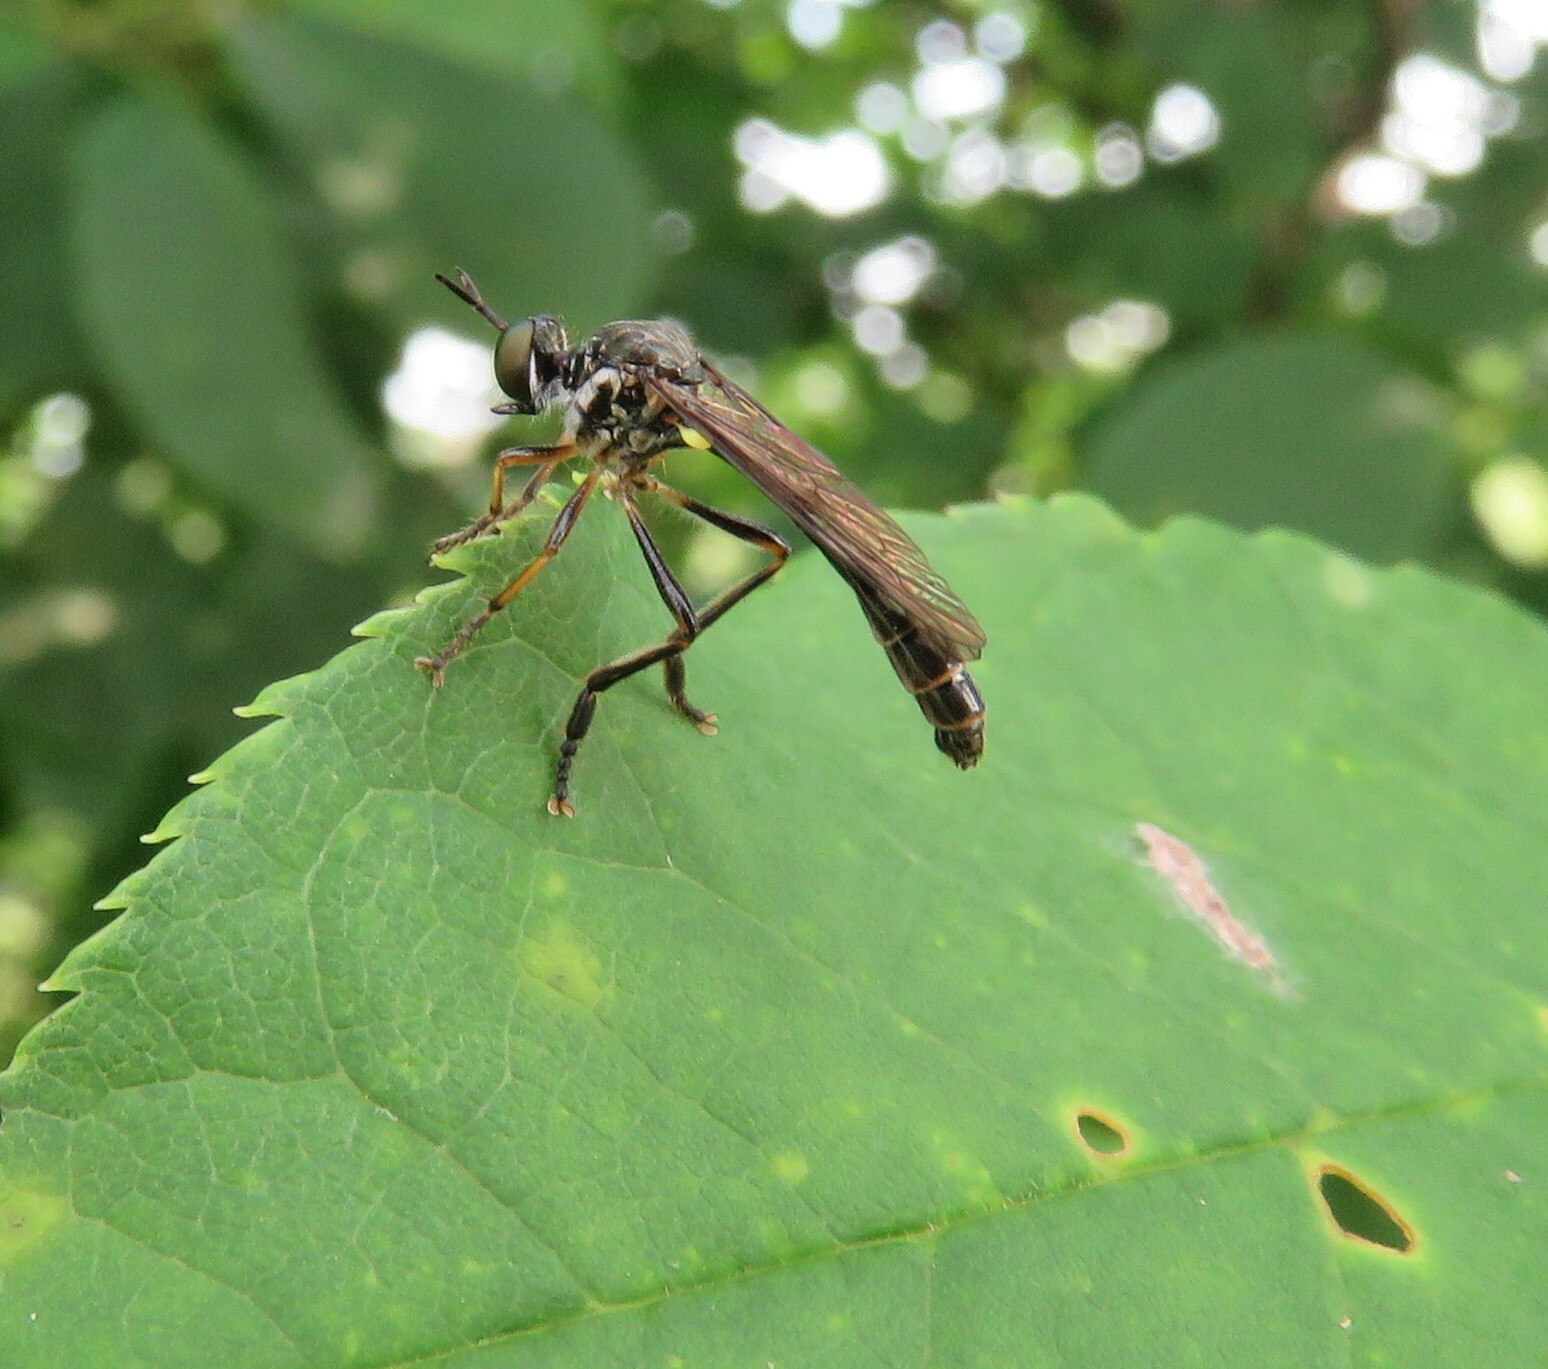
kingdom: Animalia
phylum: Arthropoda
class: Insecta
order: Diptera
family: Asilidae
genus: Dioctria
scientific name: Dioctria hyalipennis
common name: Stripe-legged robberfly
